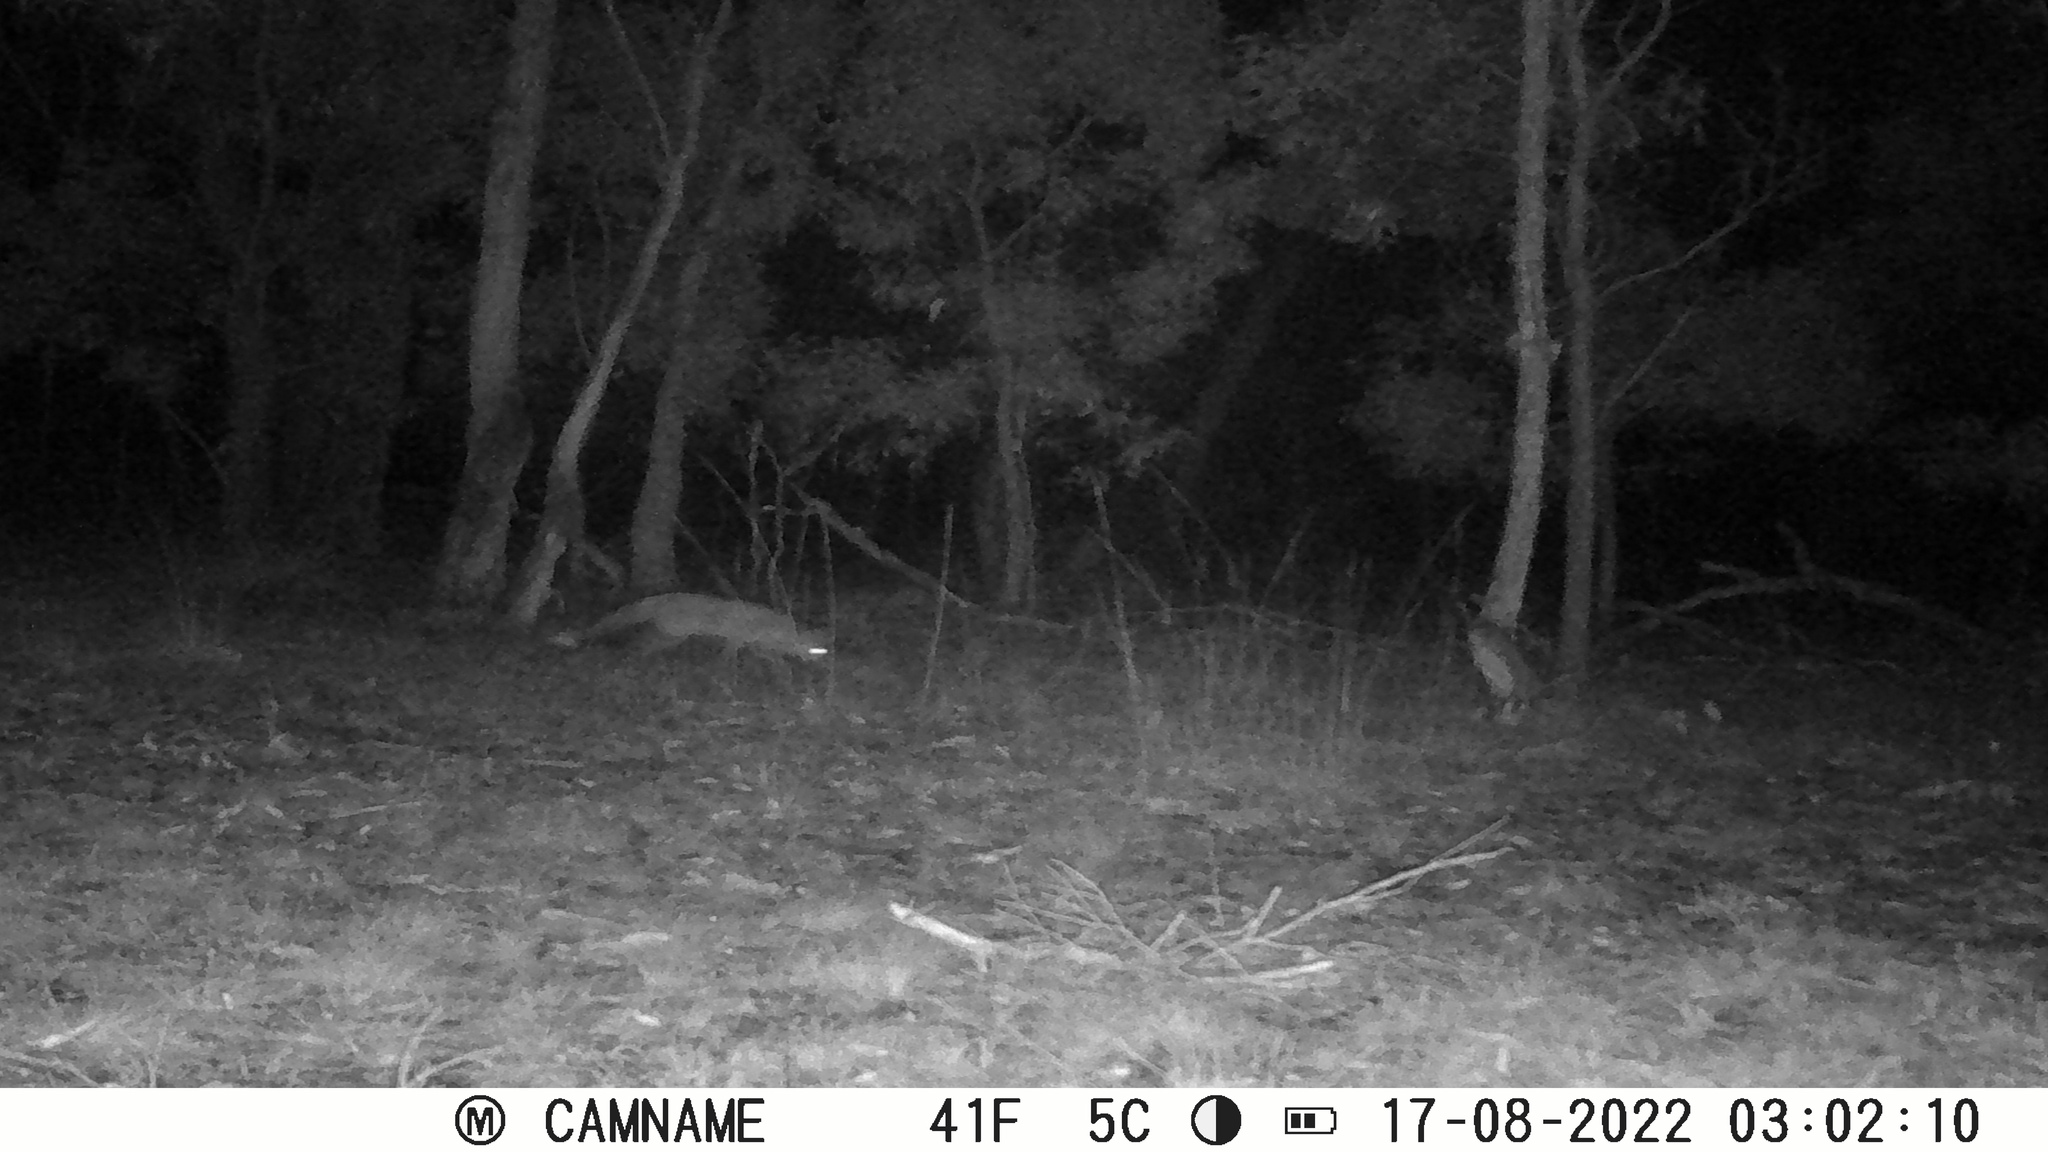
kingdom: Animalia
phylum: Chordata
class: Mammalia
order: Carnivora
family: Canidae
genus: Vulpes
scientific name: Vulpes vulpes
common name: Red fox
